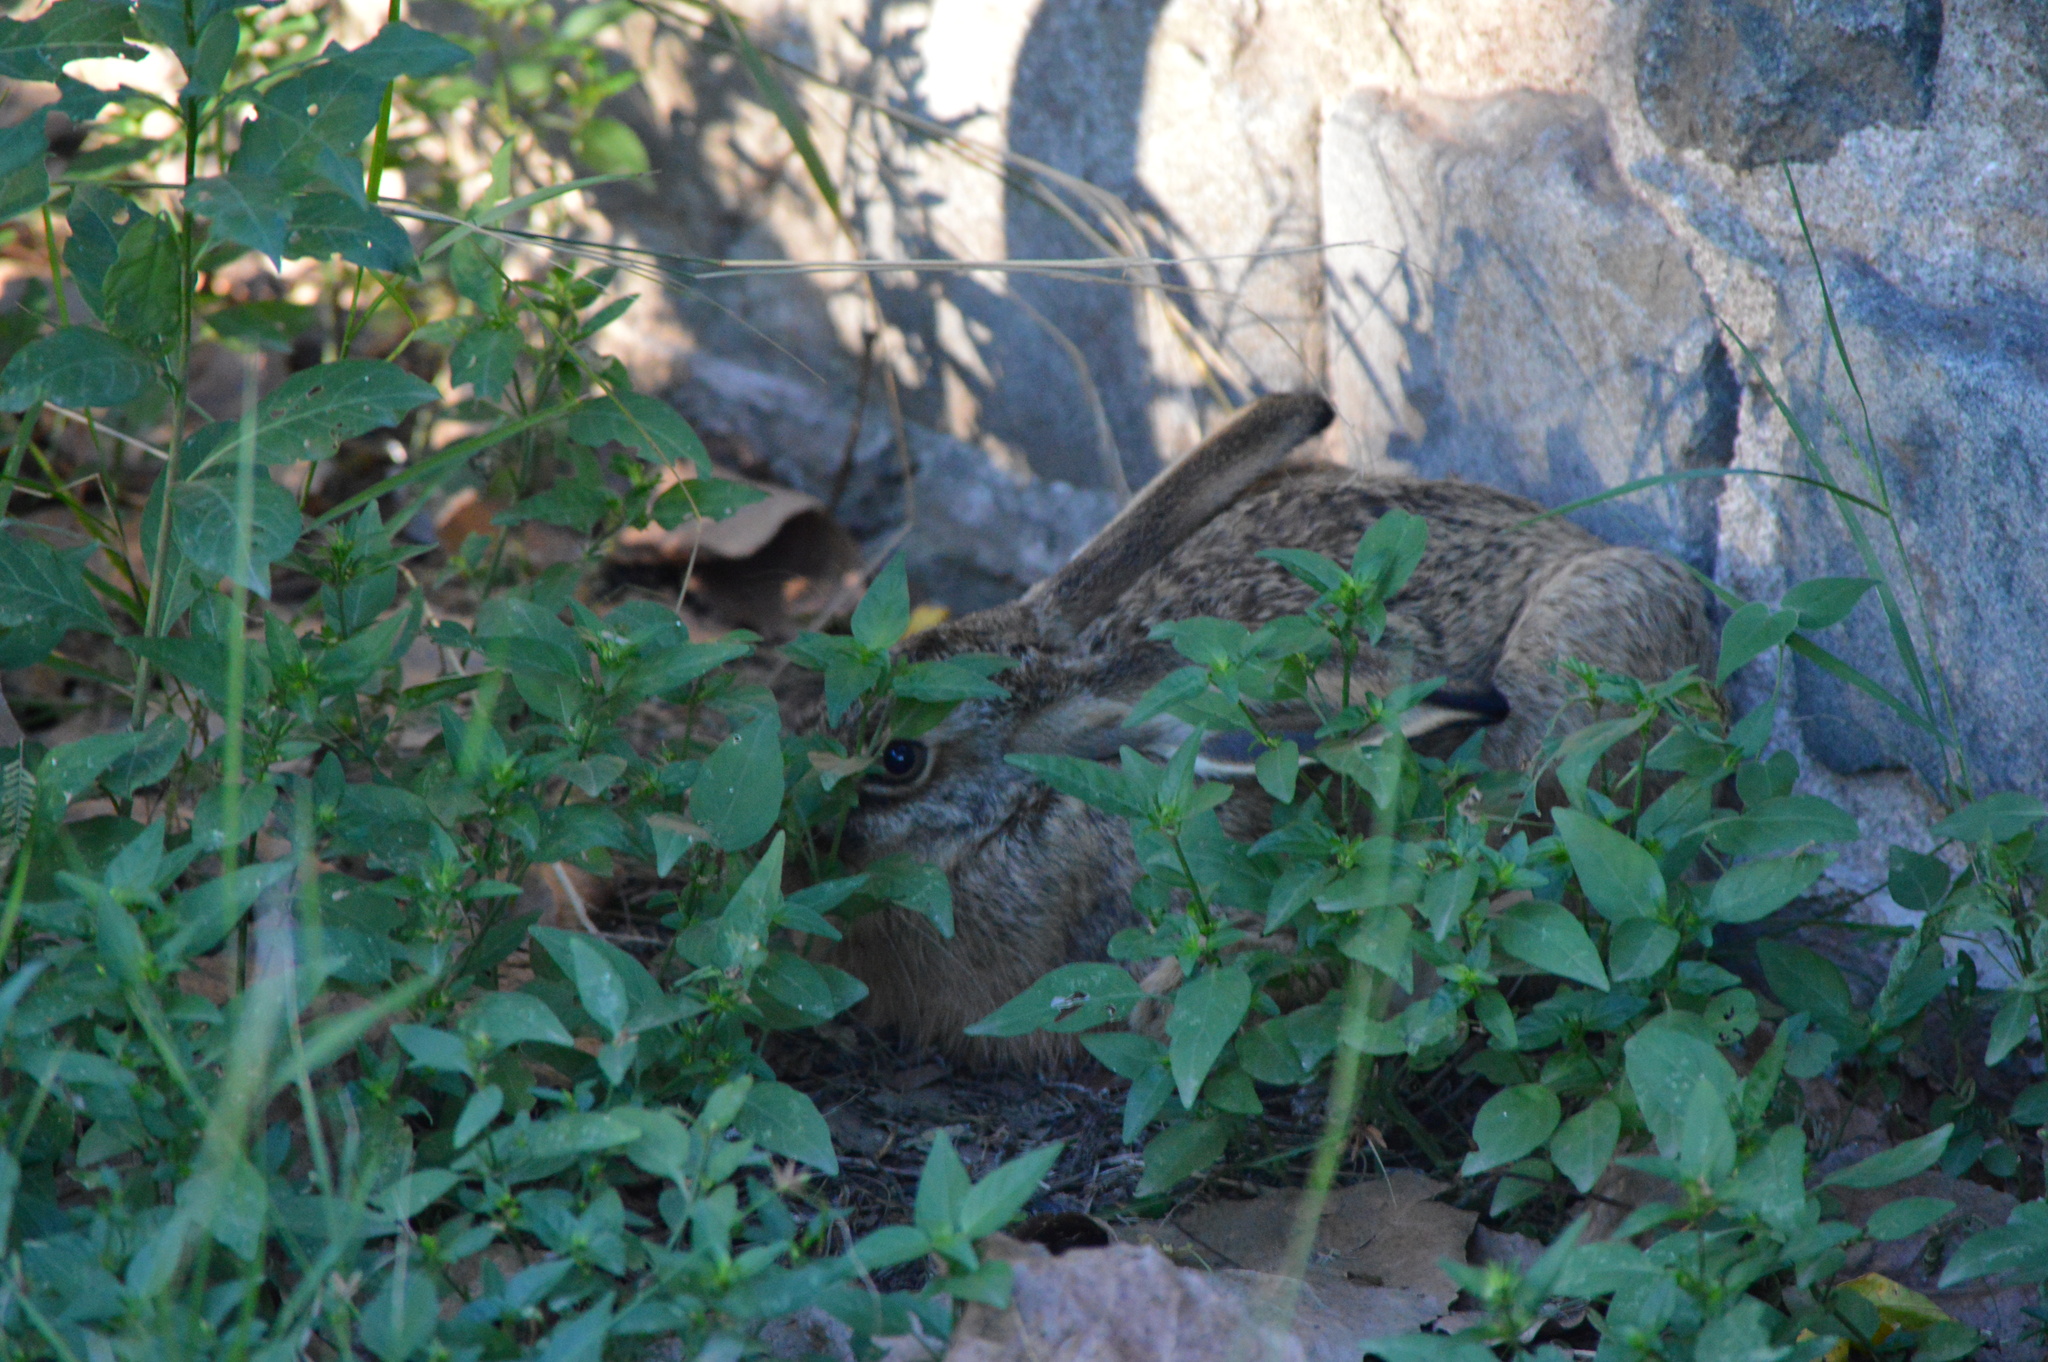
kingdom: Animalia
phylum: Chordata
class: Mammalia
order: Lagomorpha
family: Leporidae
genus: Lepus
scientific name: Lepus europaeus
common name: European hare
